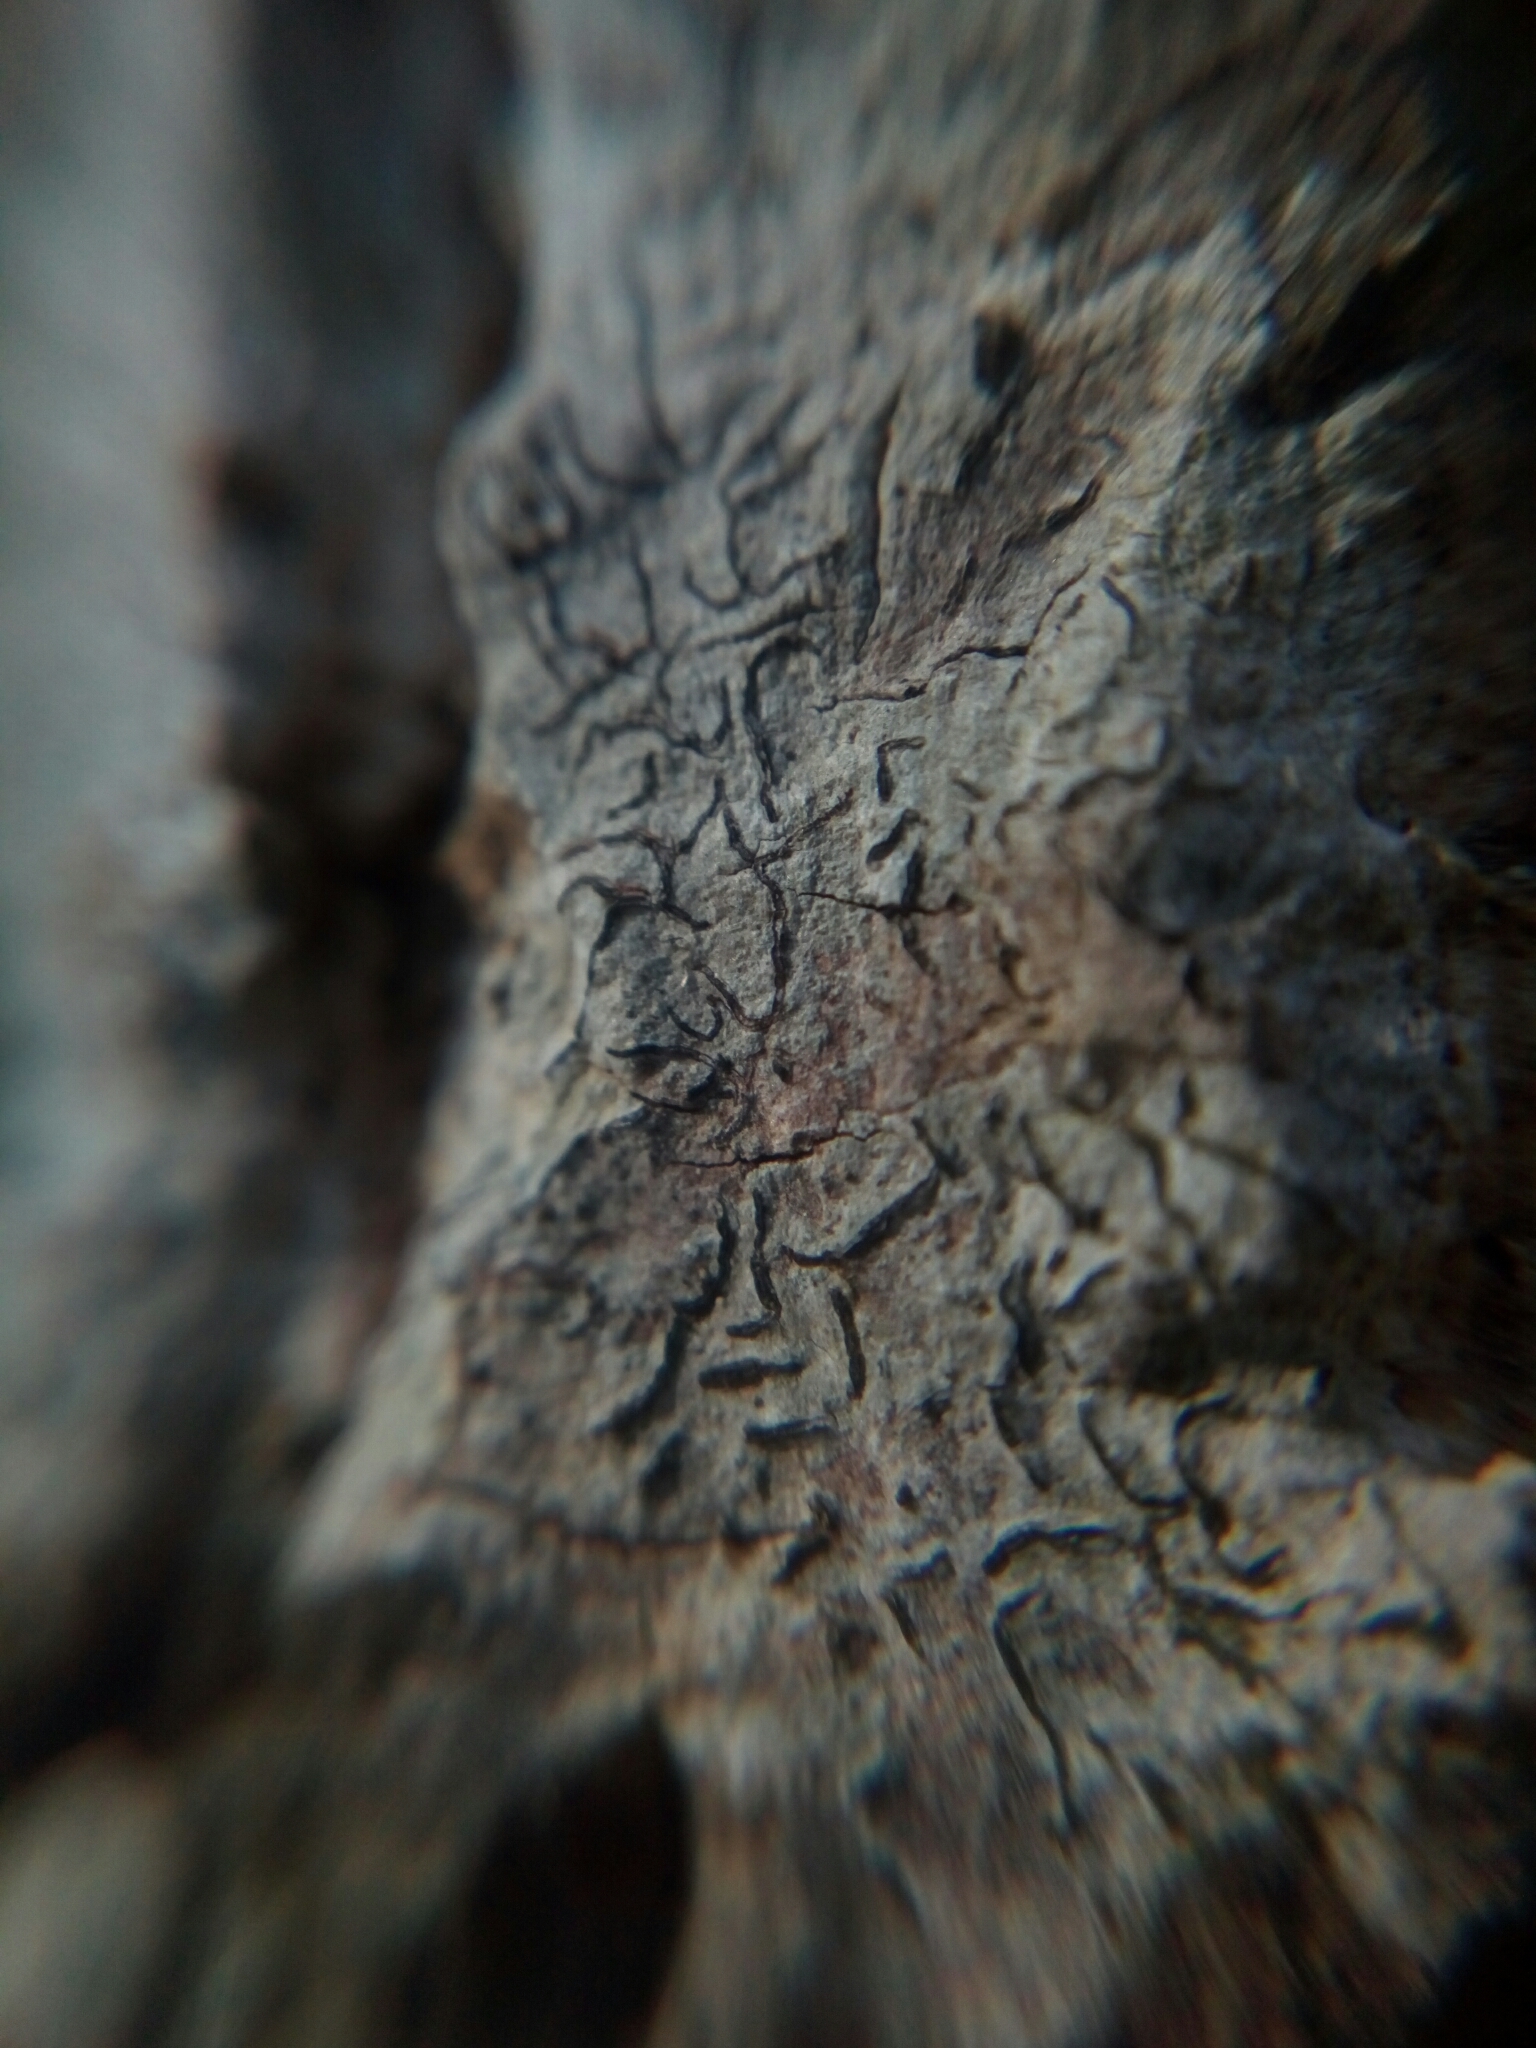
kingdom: Fungi
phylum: Ascomycota
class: Lecanoromycetes
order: Ostropales
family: Graphidaceae
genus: Graphis
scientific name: Graphis scripta
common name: Script lichen
